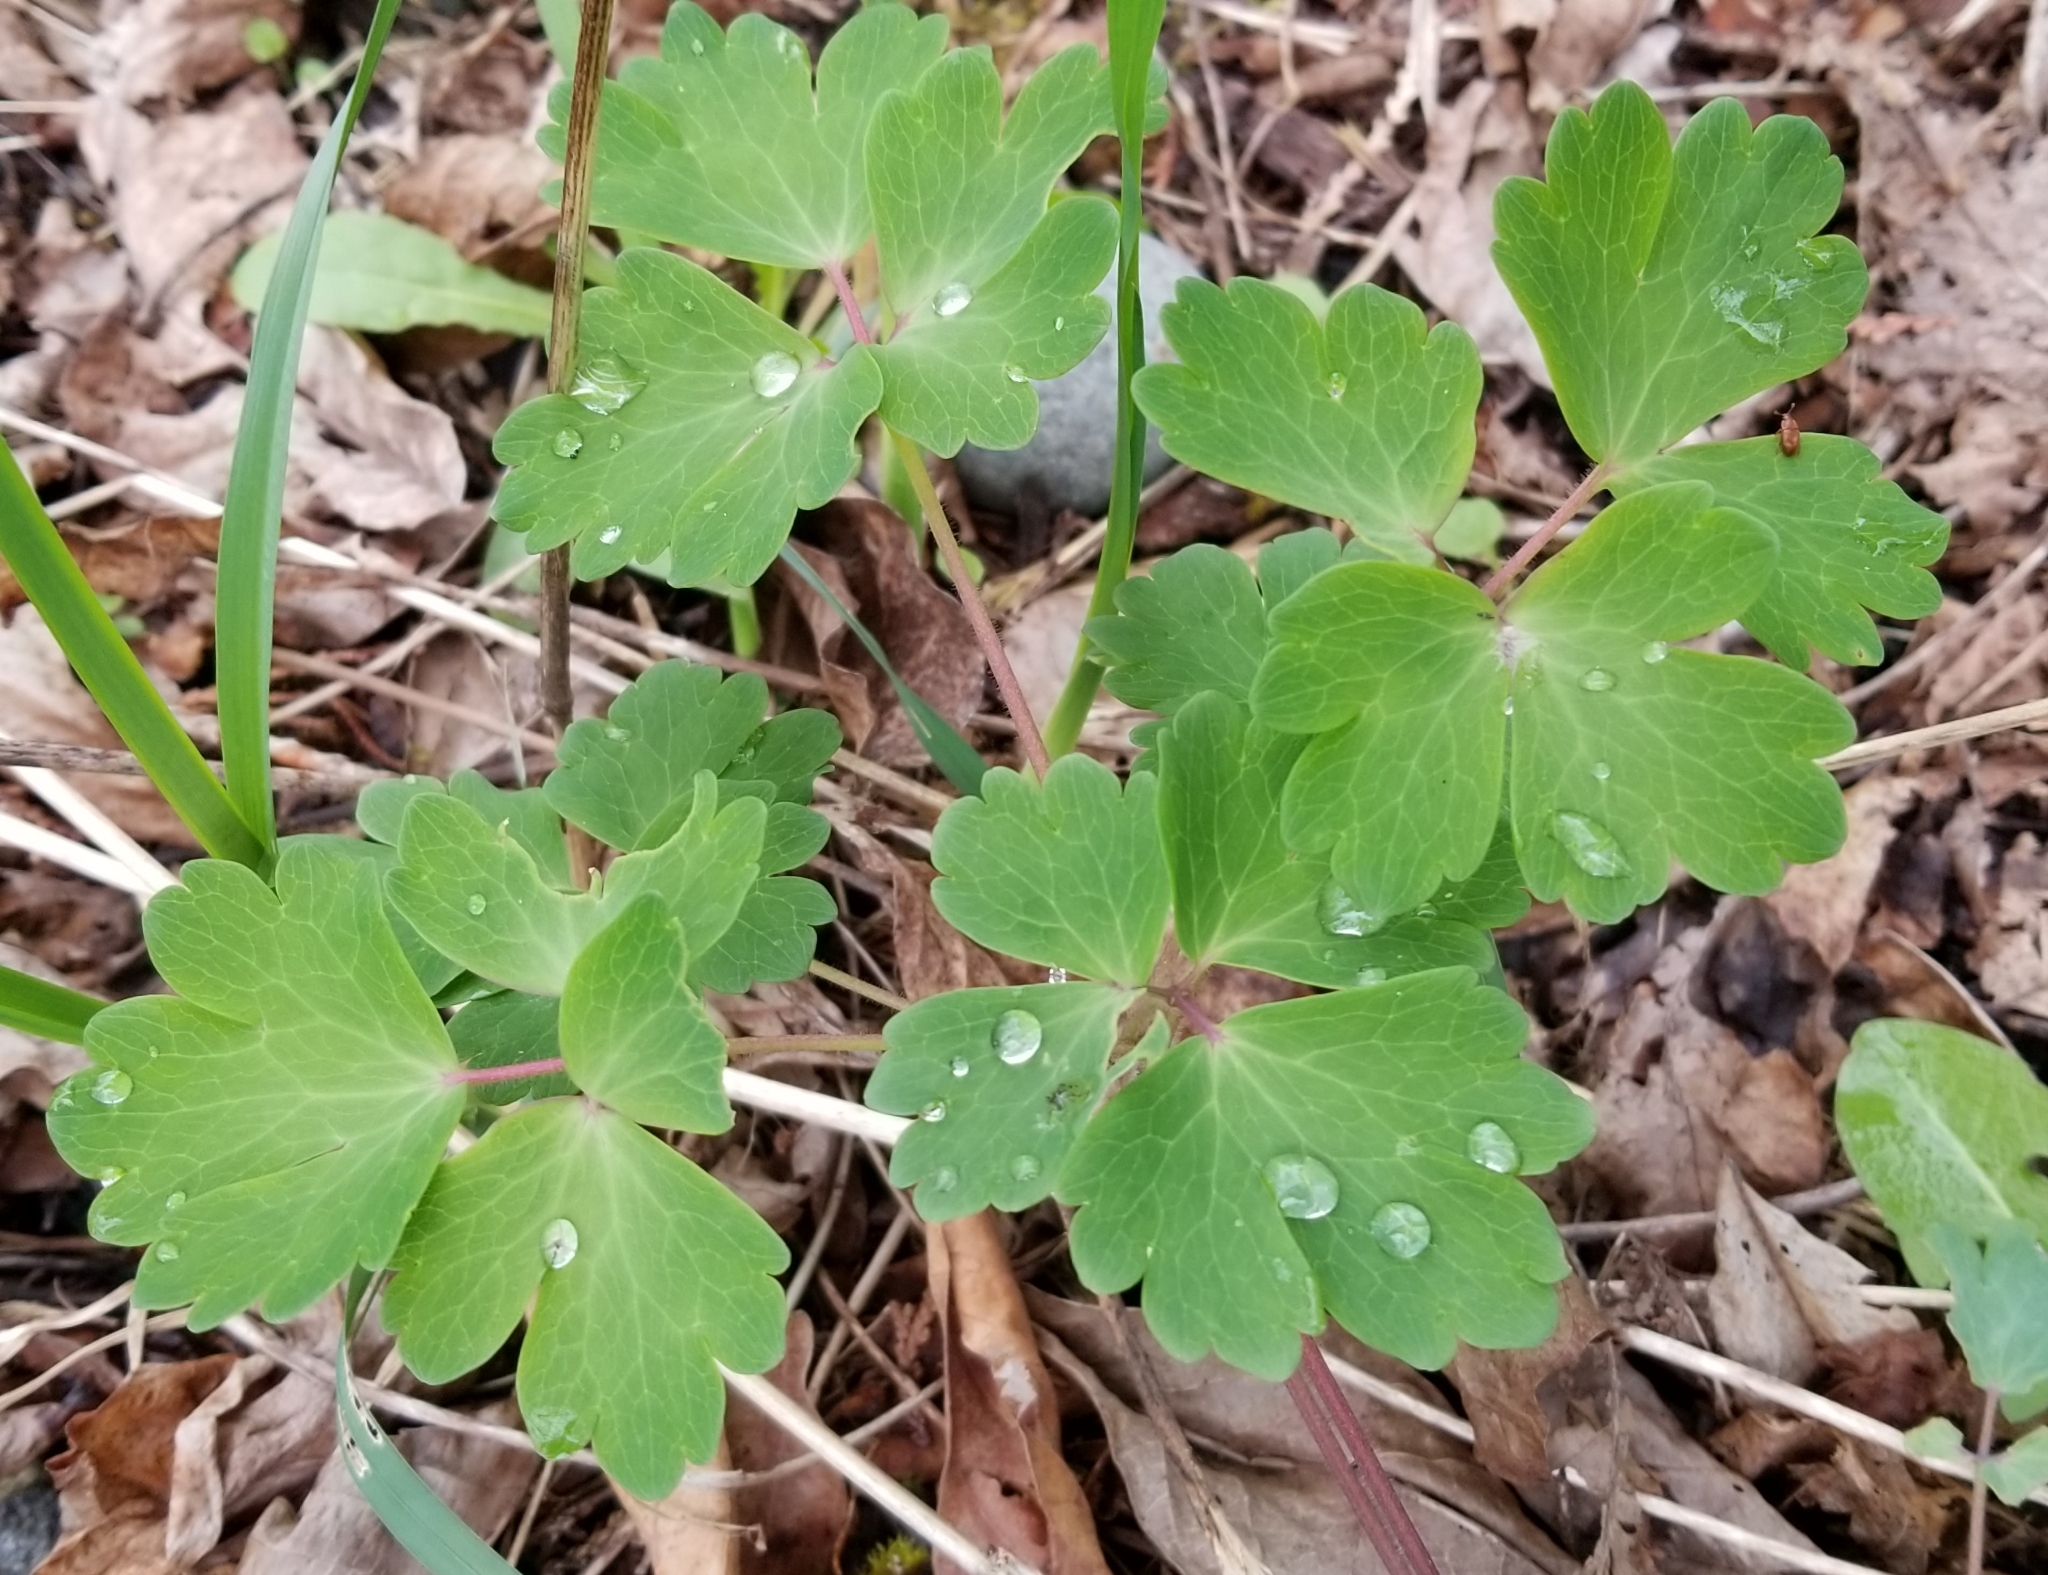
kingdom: Plantae
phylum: Tracheophyta
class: Magnoliopsida
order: Ranunculales
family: Ranunculaceae
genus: Aquilegia
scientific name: Aquilegia vulgaris
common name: Columbine
